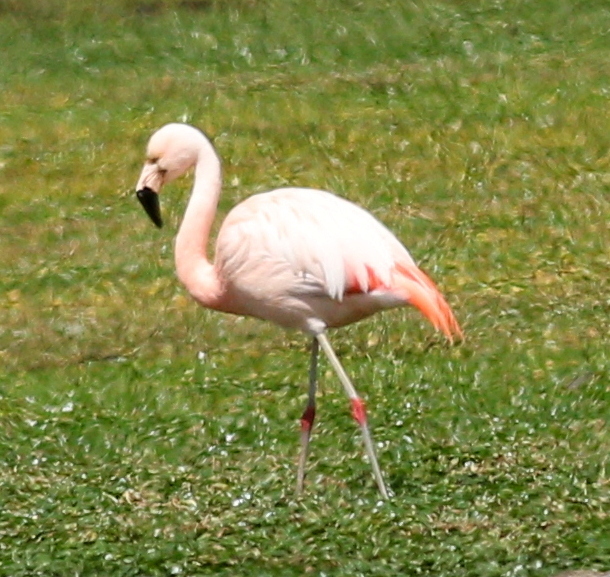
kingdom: Animalia
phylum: Chordata
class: Aves
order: Phoenicopteriformes
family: Phoenicopteridae
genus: Phoenicopterus
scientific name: Phoenicopterus chilensis
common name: Chilean flamingo
